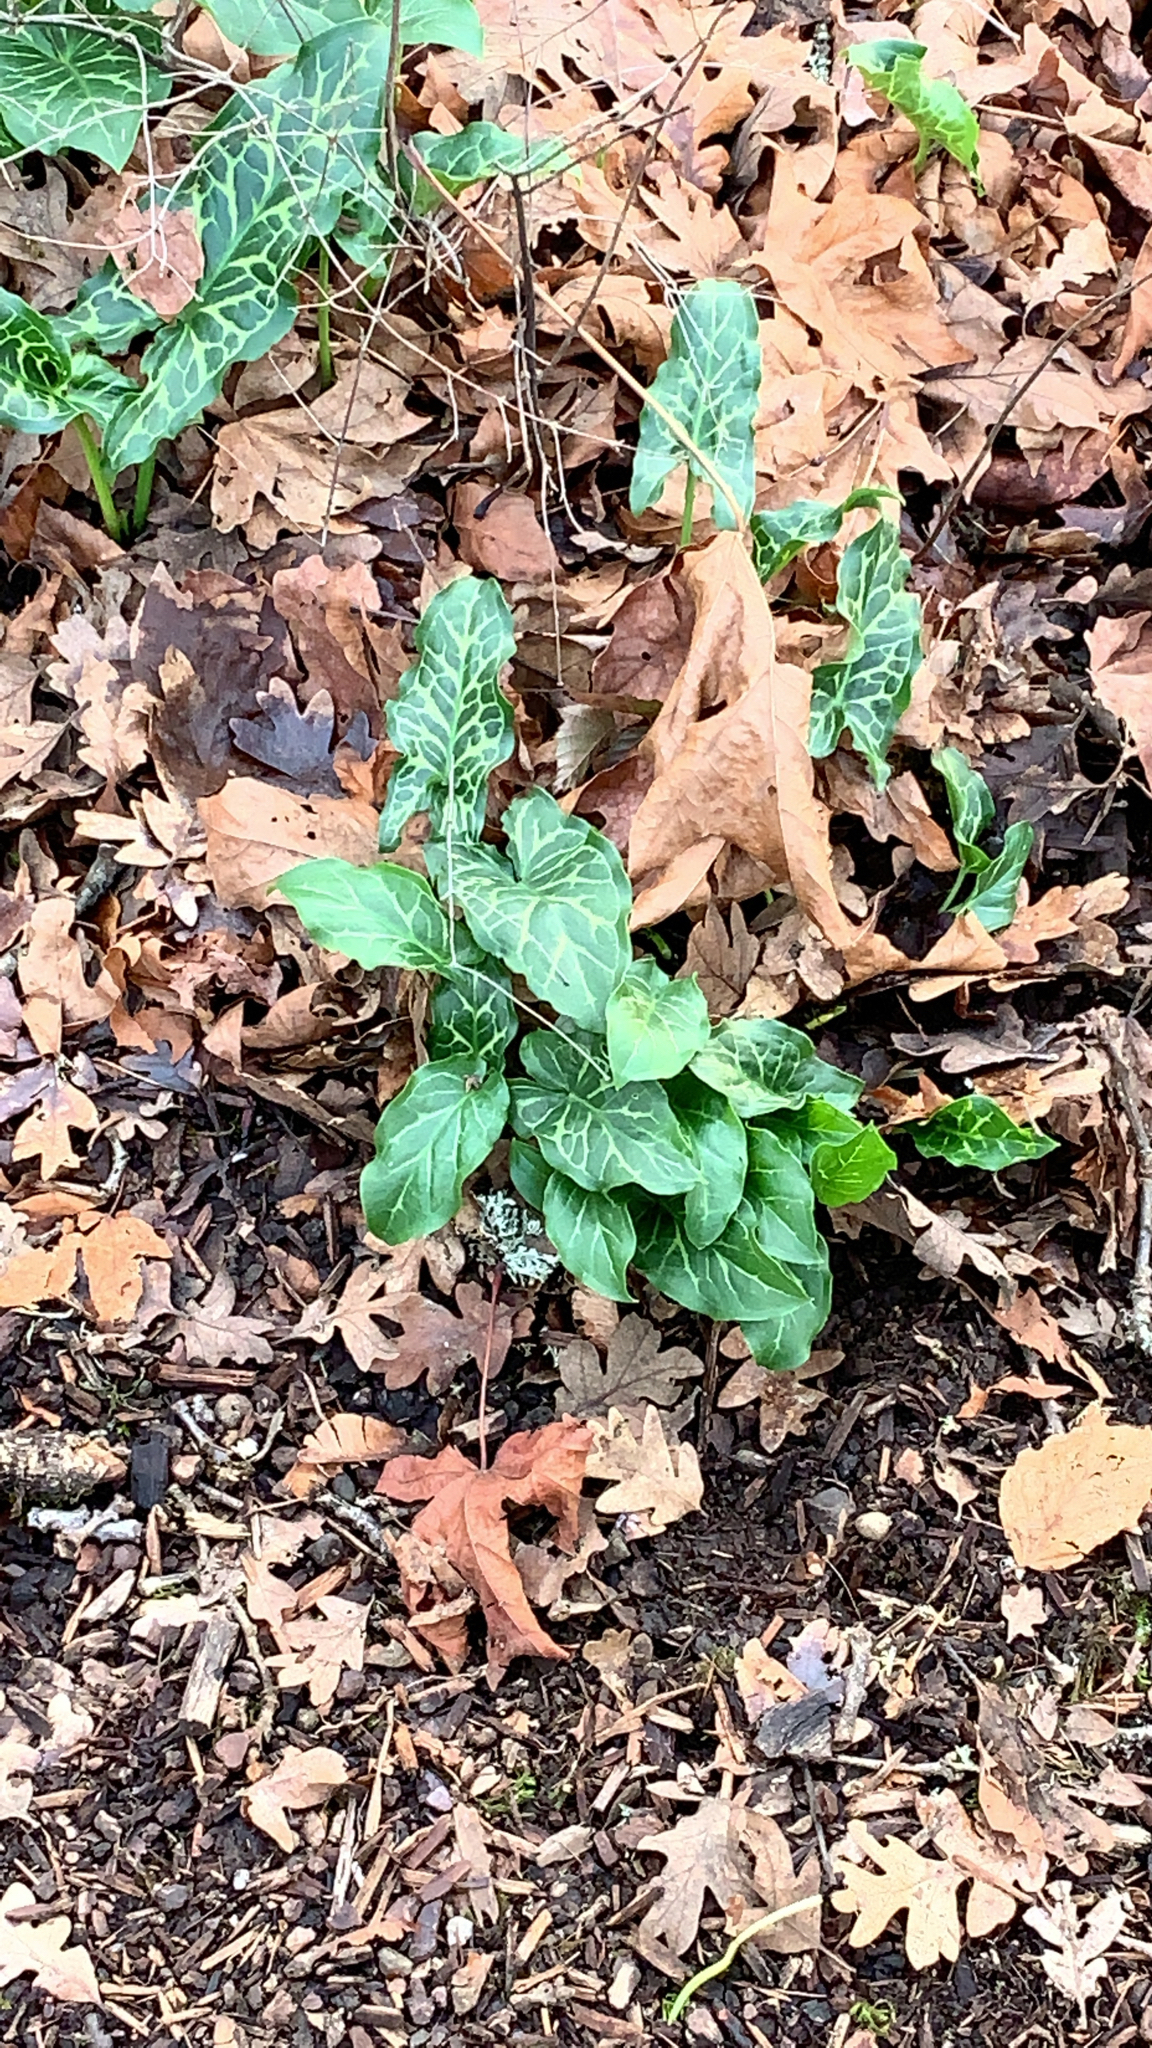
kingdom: Plantae
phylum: Tracheophyta
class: Liliopsida
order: Alismatales
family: Araceae
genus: Arum
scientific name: Arum italicum
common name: Italian lords-and-ladies
